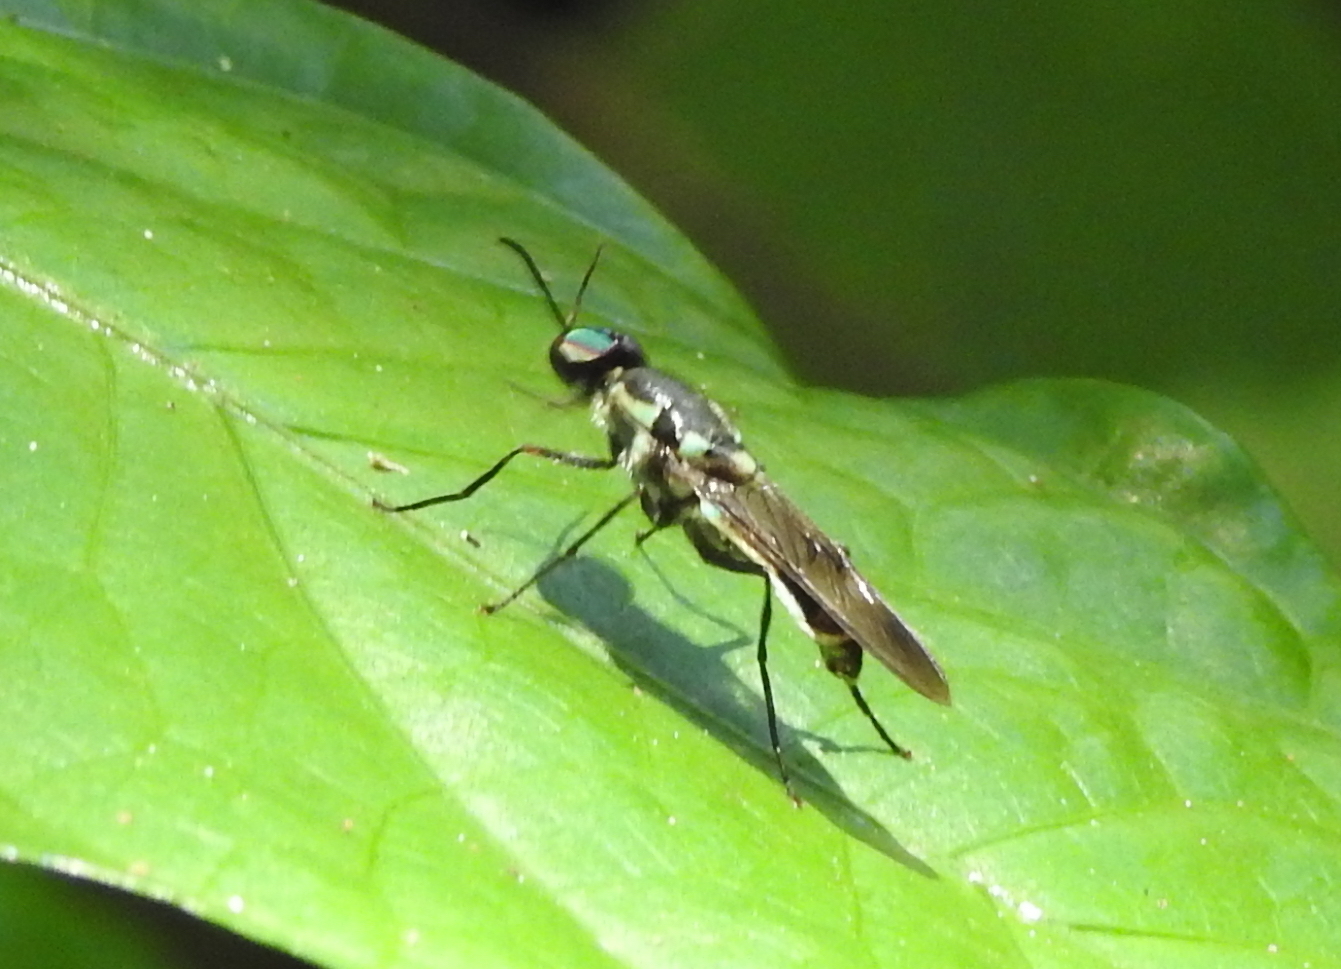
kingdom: Animalia
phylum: Arthropoda
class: Insecta
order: Diptera
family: Stratiomyidae
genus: Eudmeta
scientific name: Eudmeta marginata
